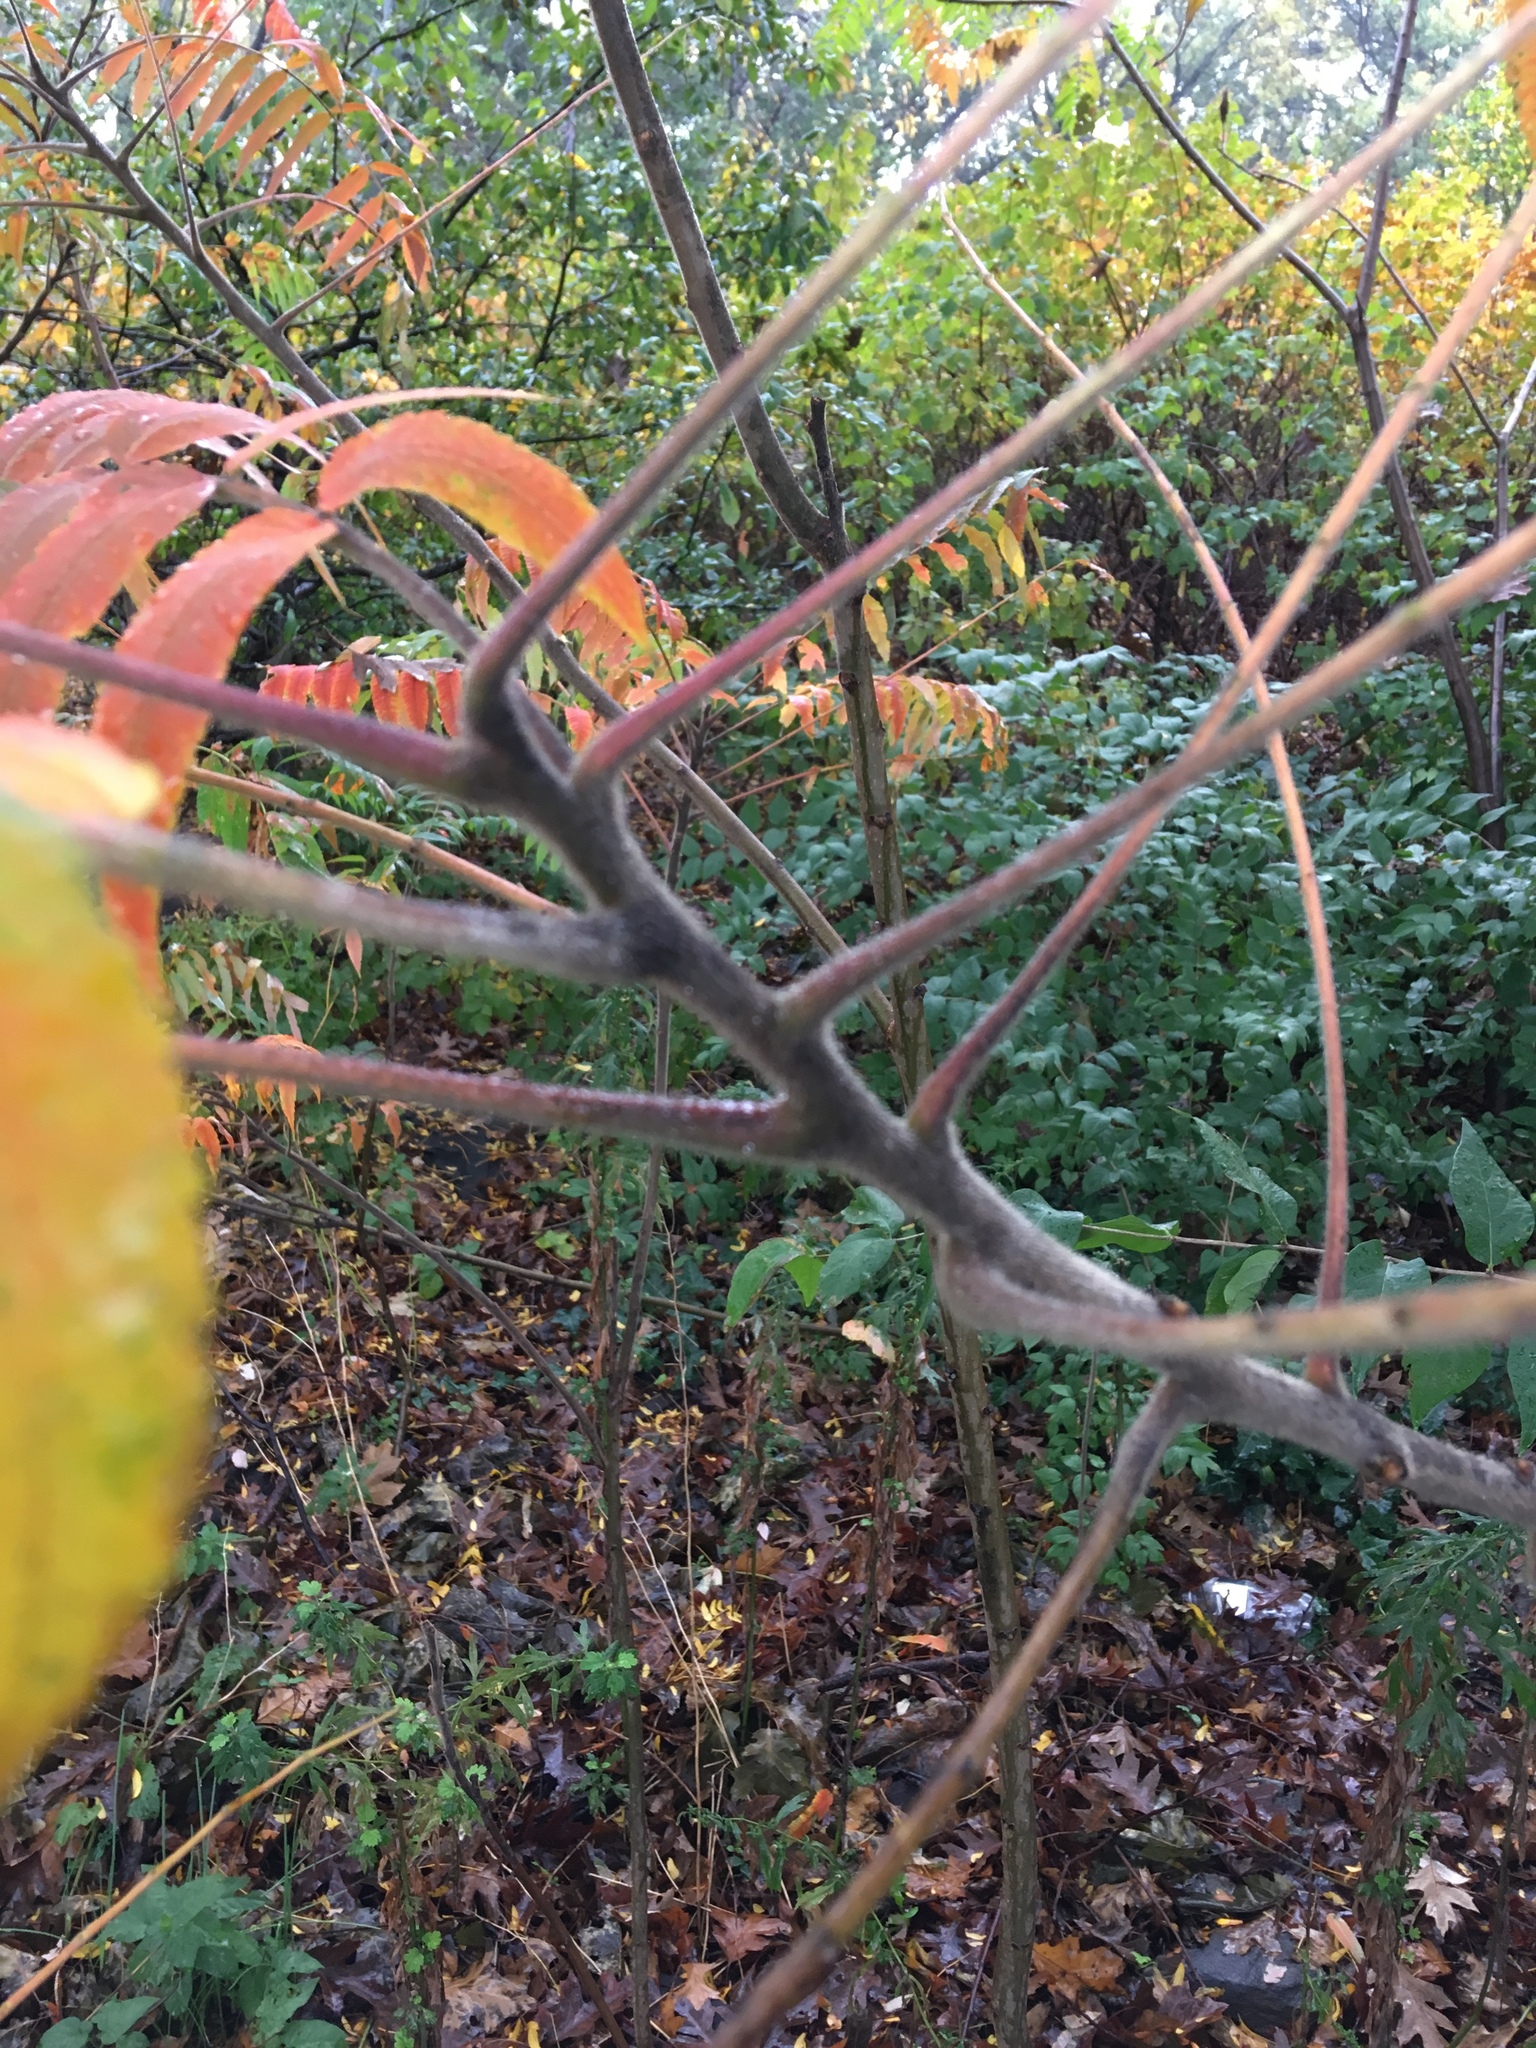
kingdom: Plantae
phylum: Tracheophyta
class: Magnoliopsida
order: Sapindales
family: Anacardiaceae
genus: Rhus
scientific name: Rhus typhina
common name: Staghorn sumac
